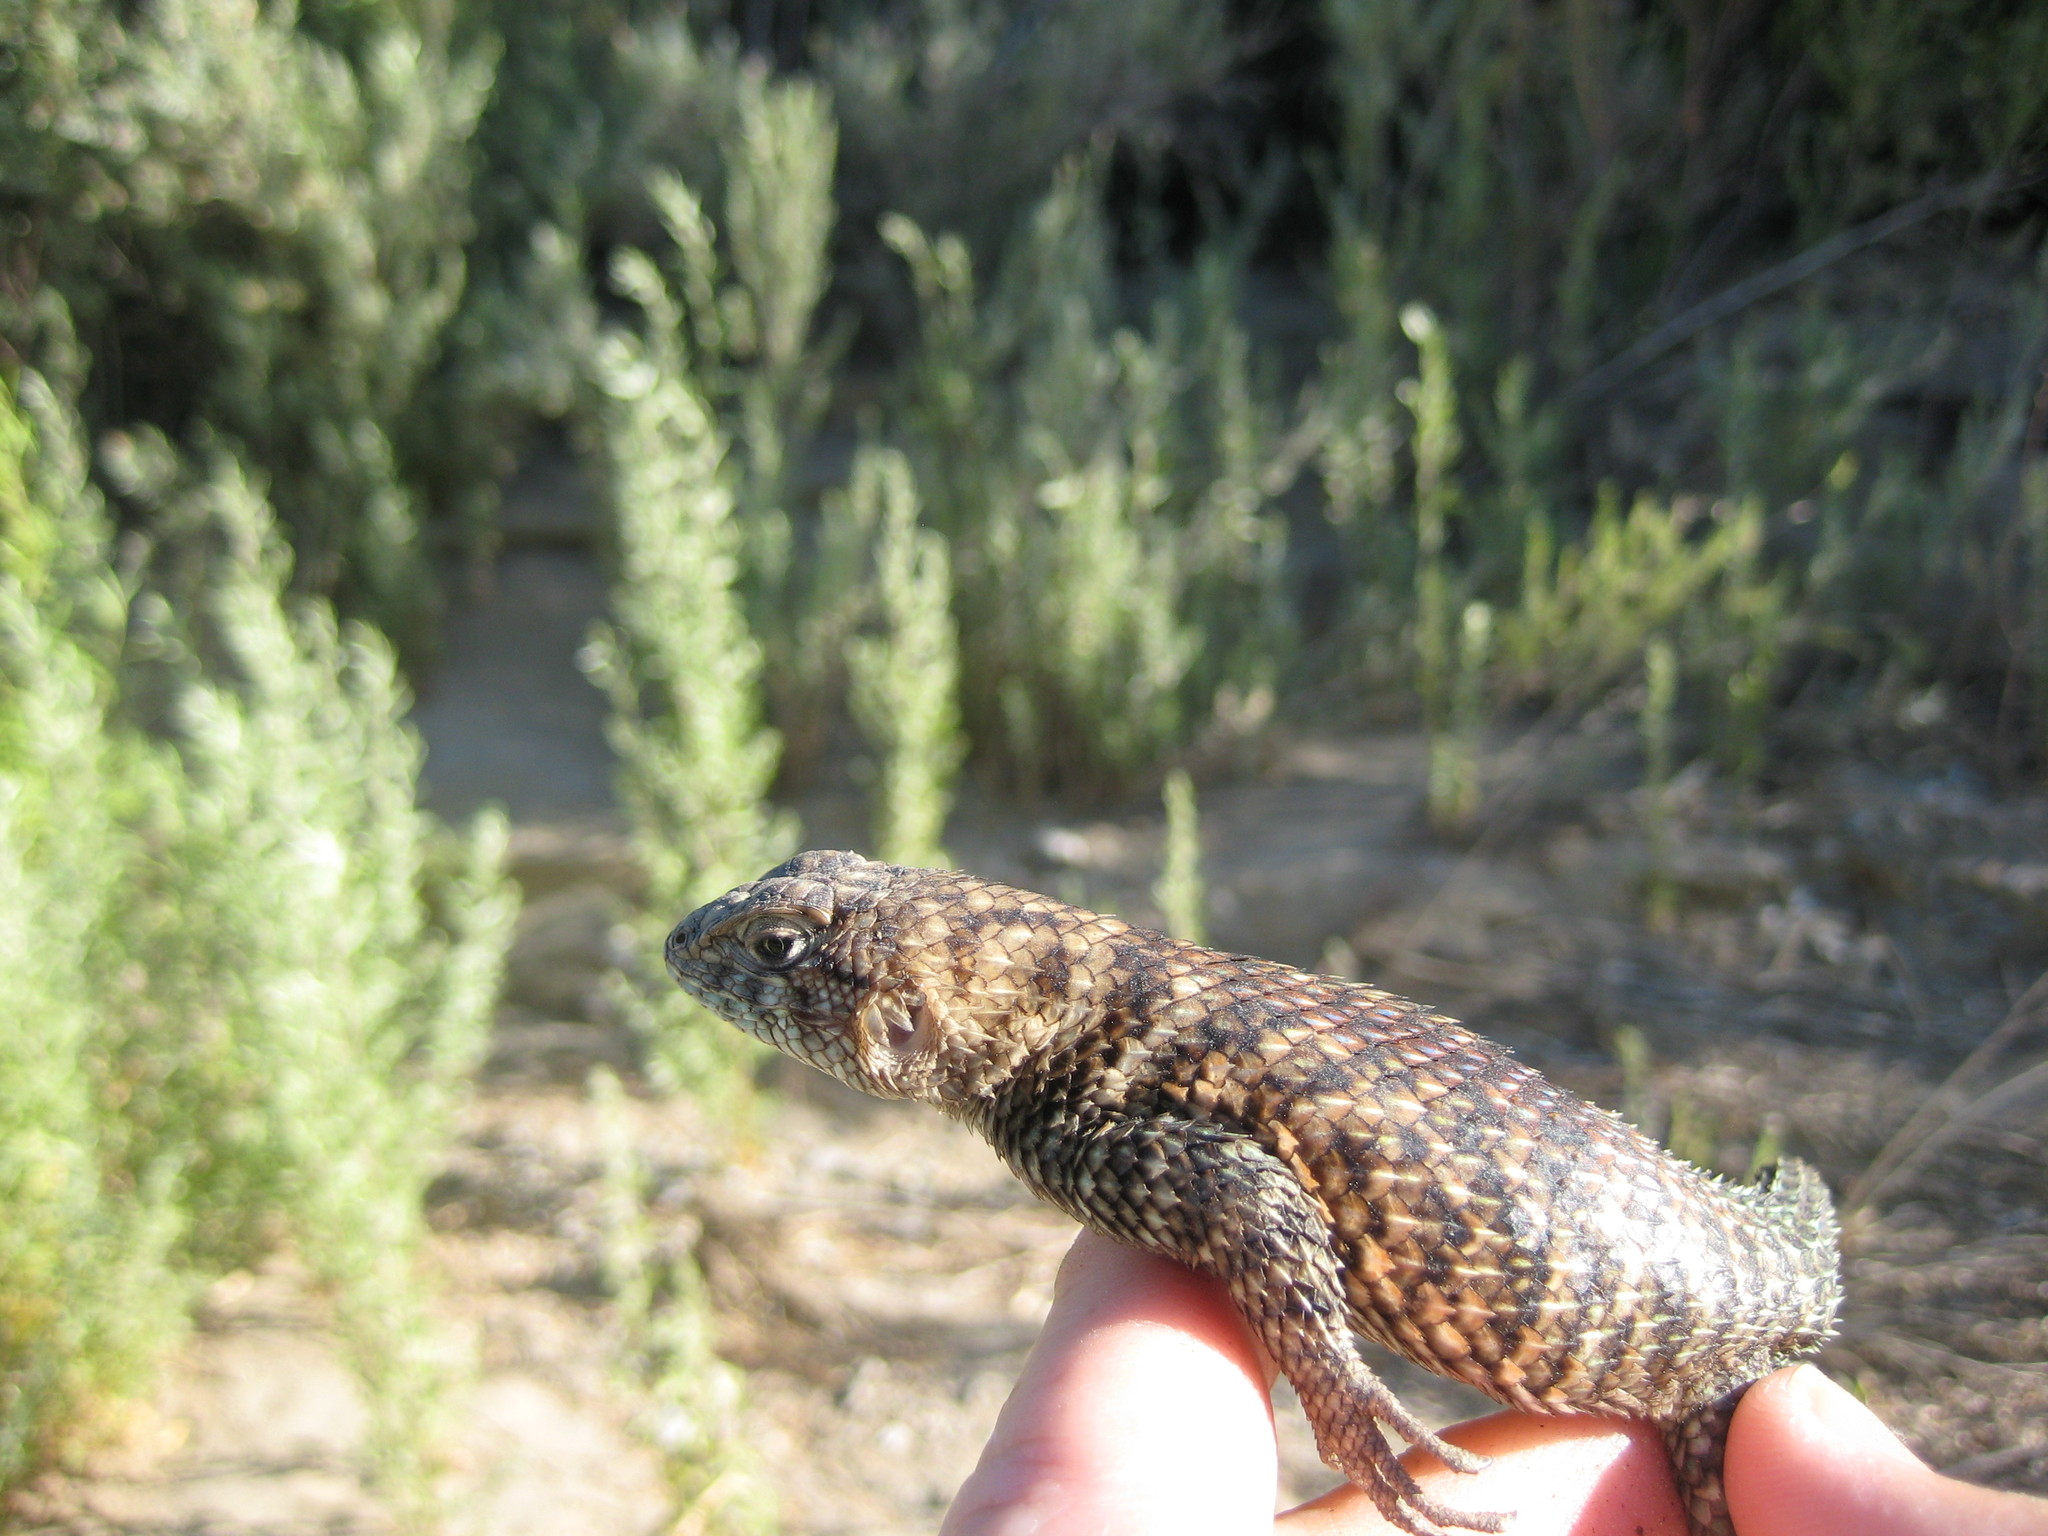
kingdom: Animalia
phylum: Chordata
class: Squamata
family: Phrynosomatidae
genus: Sceloporus
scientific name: Sceloporus orcutti
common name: Granite spiny lizard
